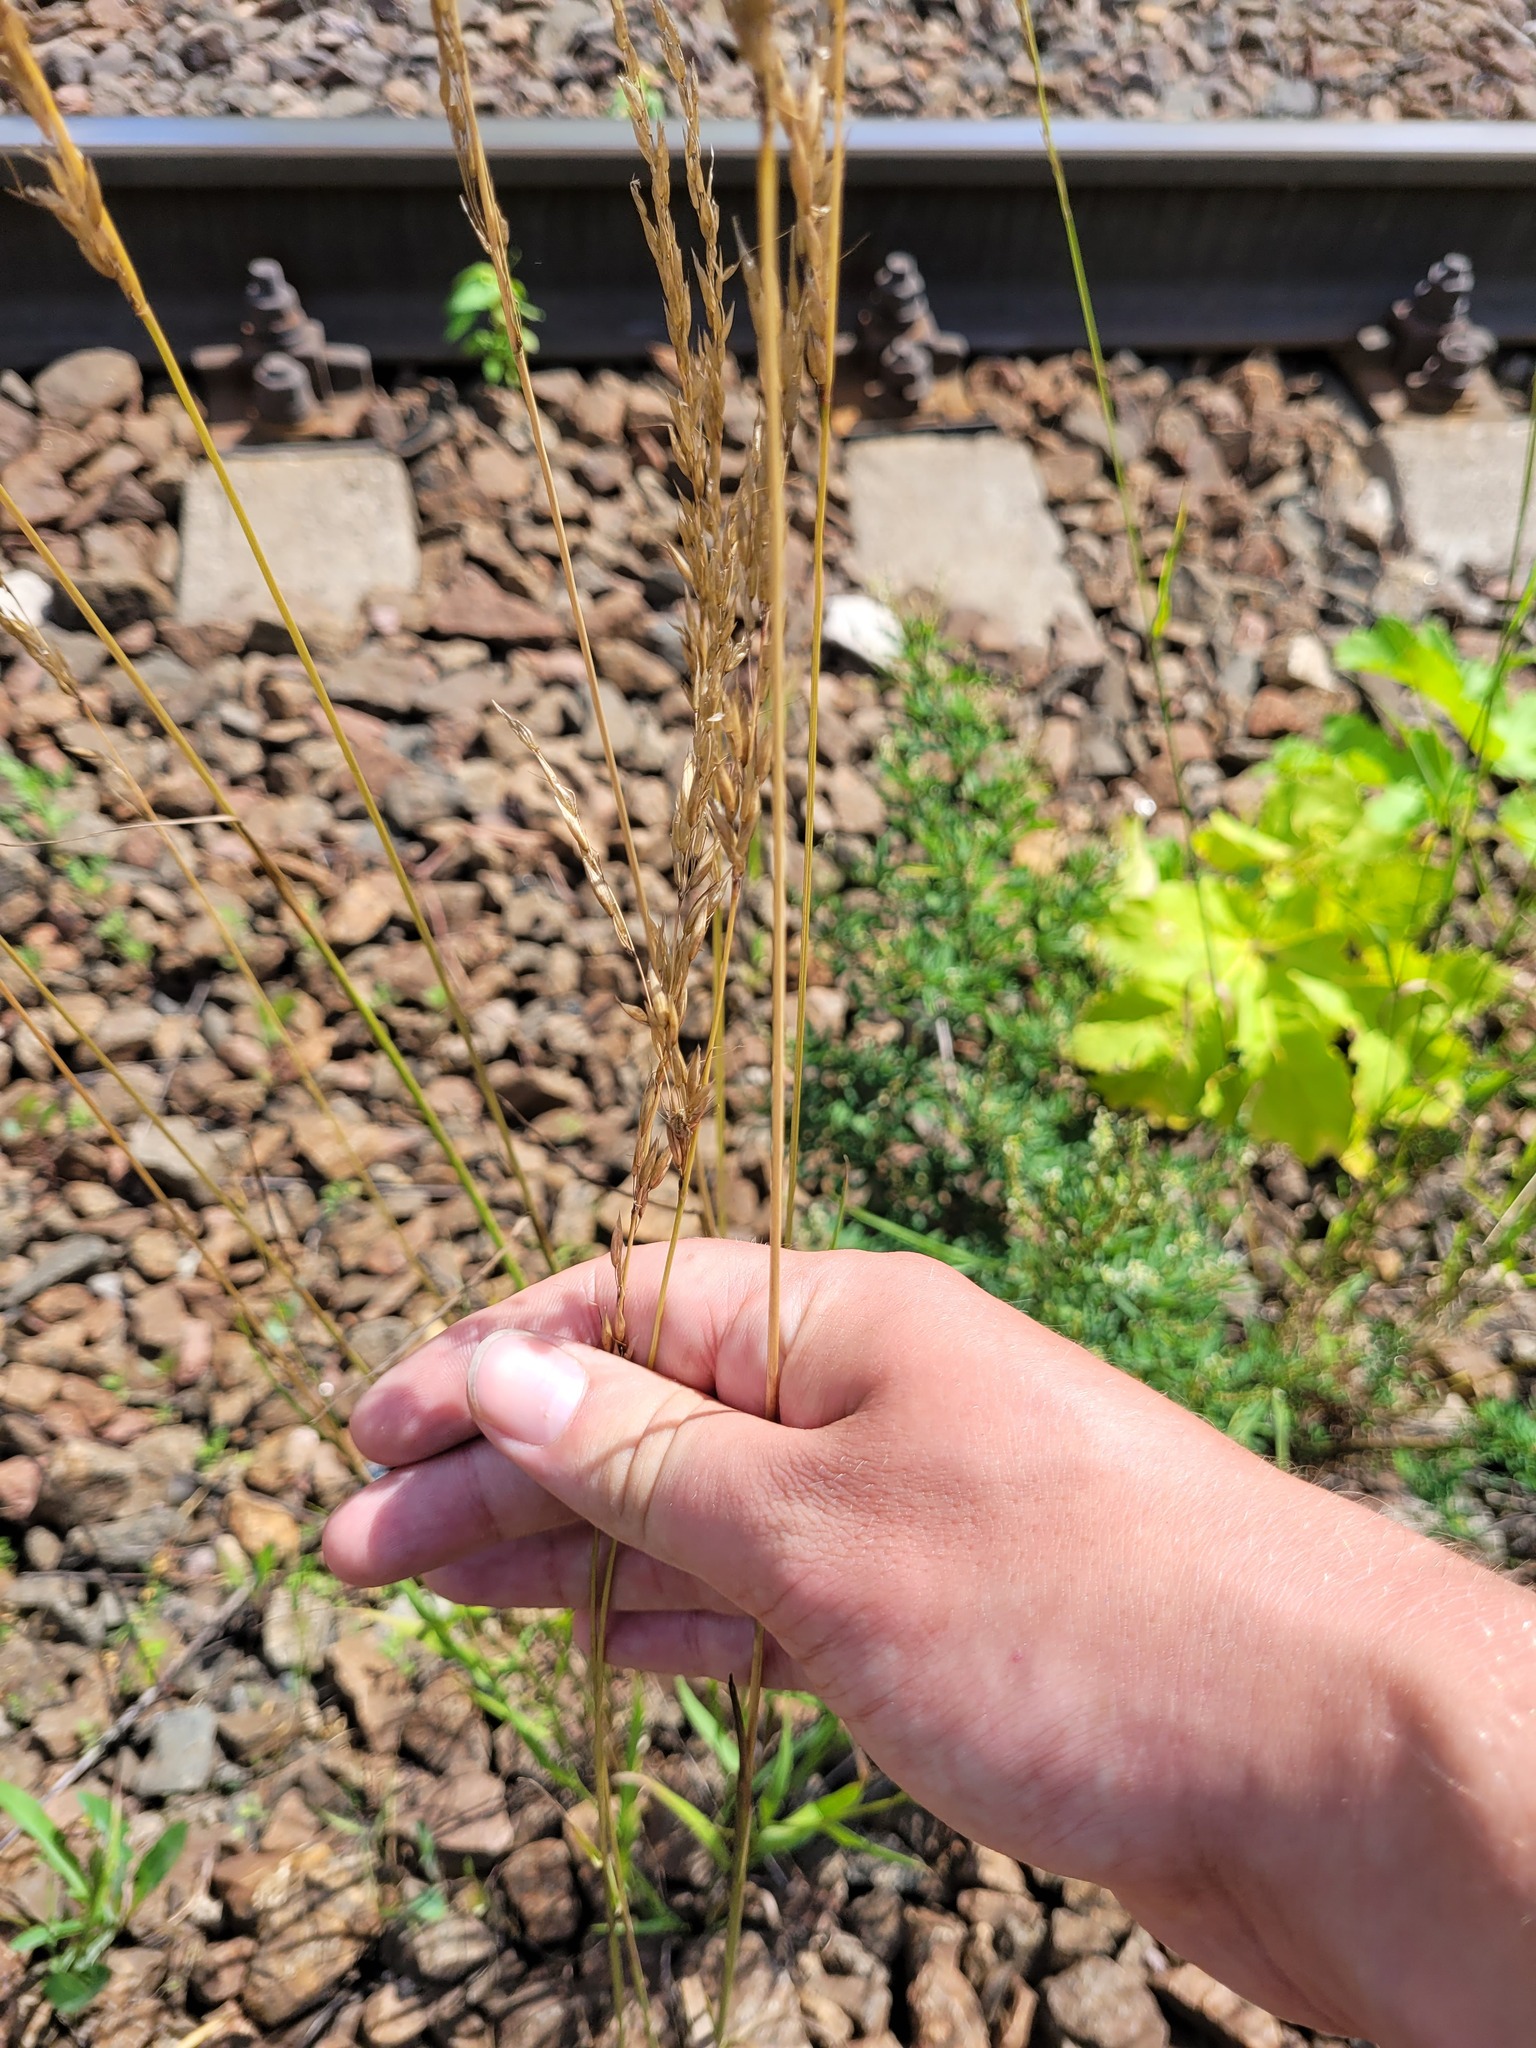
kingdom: Plantae
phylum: Tracheophyta
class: Liliopsida
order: Poales
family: Poaceae
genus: Arrhenatherum
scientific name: Arrhenatherum elatius
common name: Tall oatgrass
